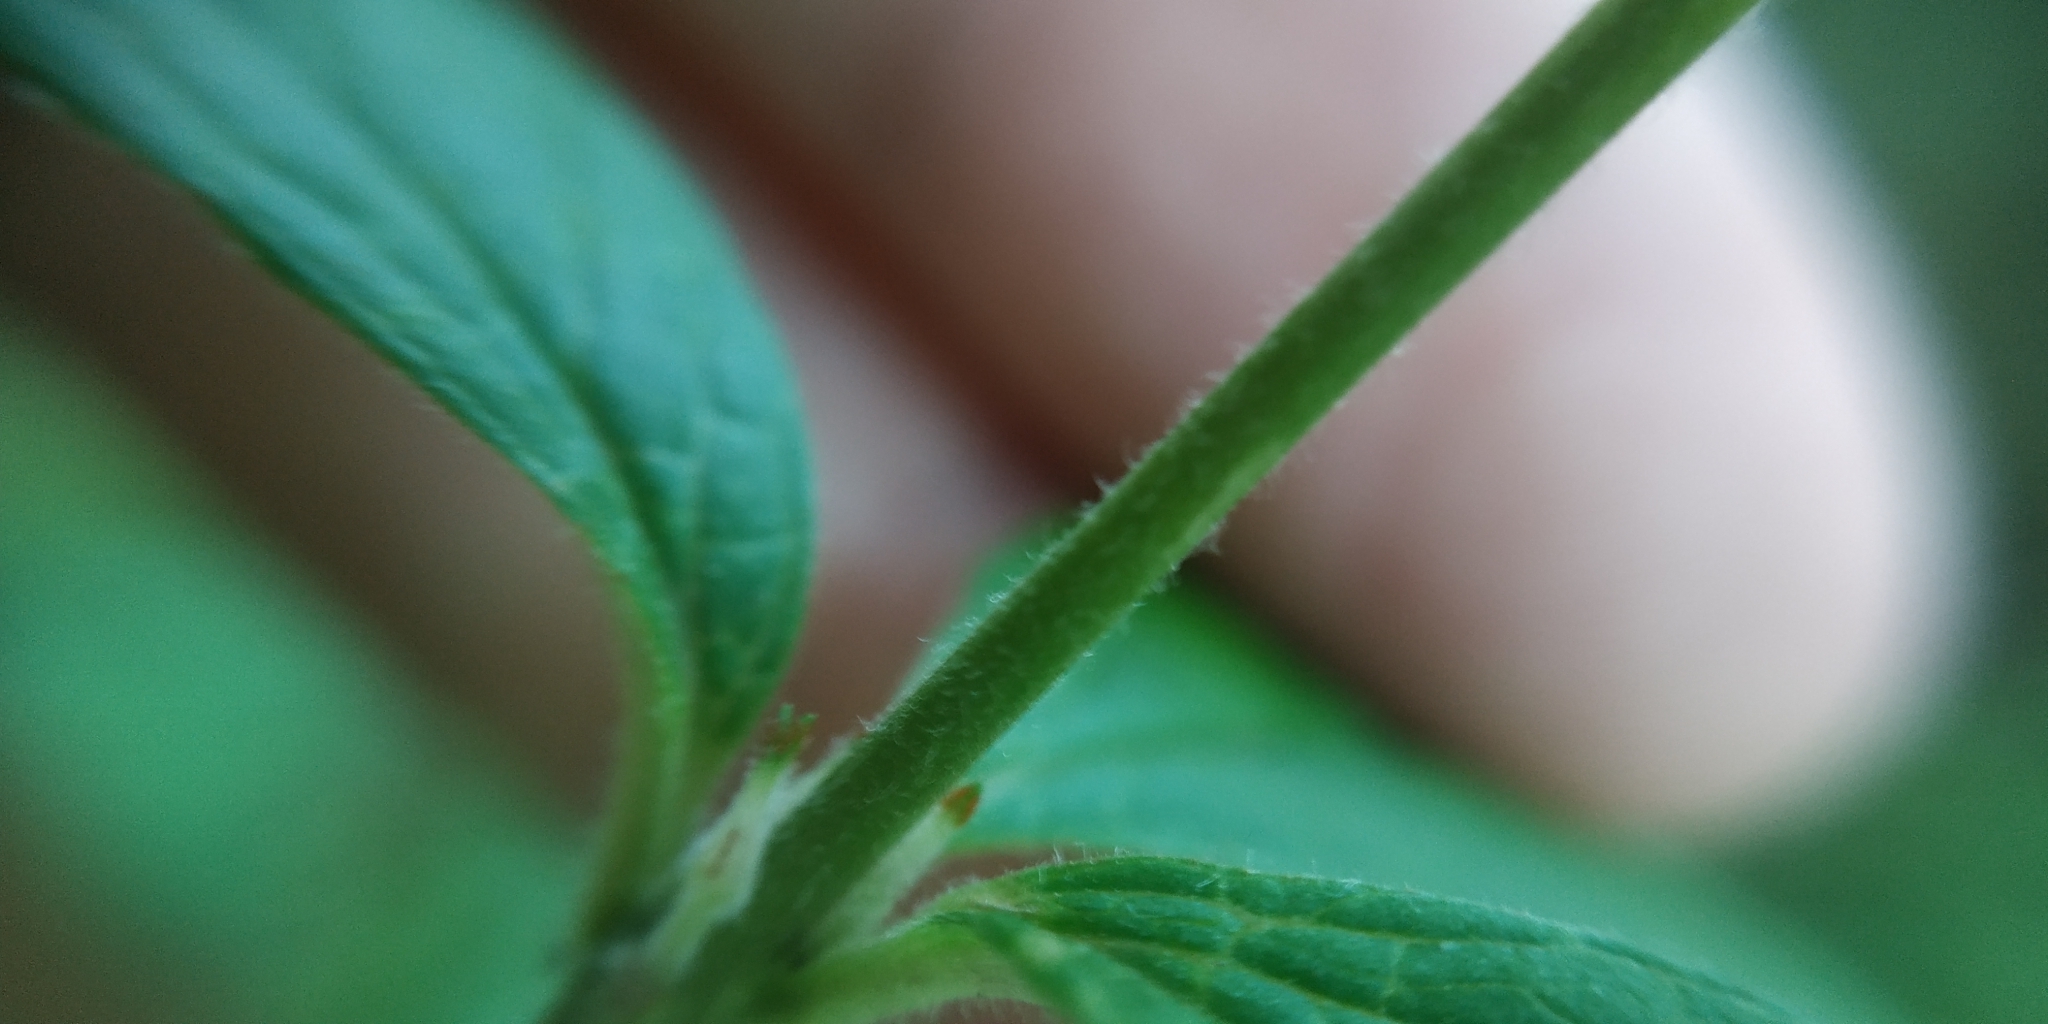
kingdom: Plantae
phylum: Tracheophyta
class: Magnoliopsida
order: Ericales
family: Primulaceae
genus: Lysimachia
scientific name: Lysimachia vulgaris
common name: Yellow loosestrife
